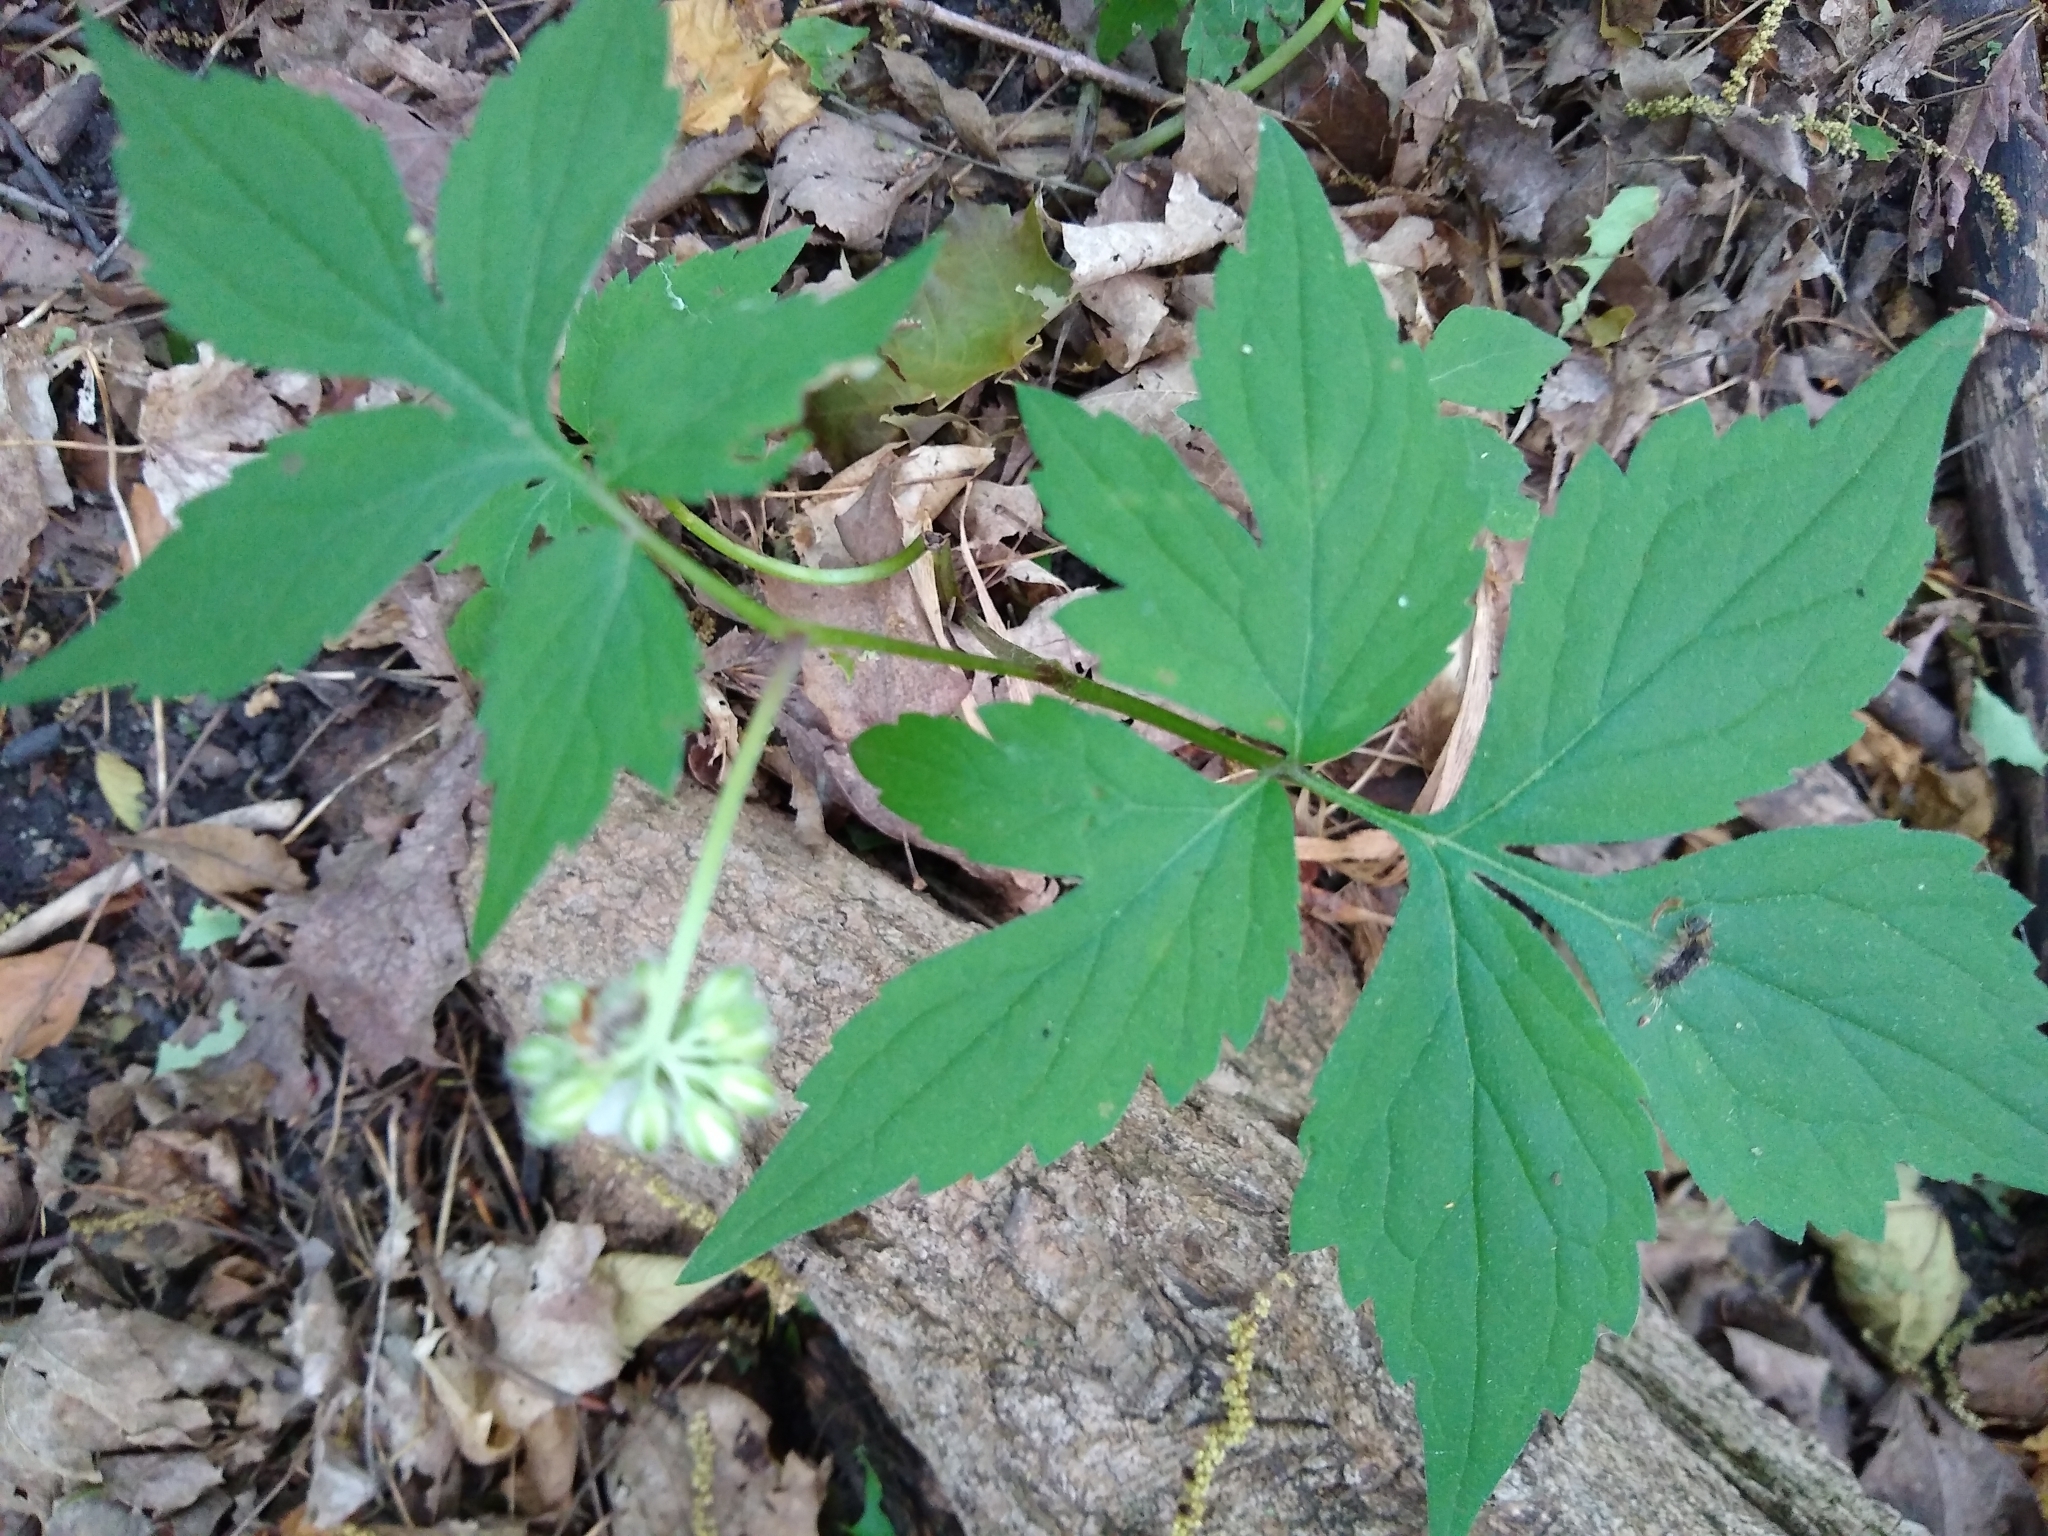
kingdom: Plantae
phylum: Tracheophyta
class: Magnoliopsida
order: Boraginales
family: Hydrophyllaceae
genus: Hydrophyllum
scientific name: Hydrophyllum virginianum
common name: Virginia waterleaf
